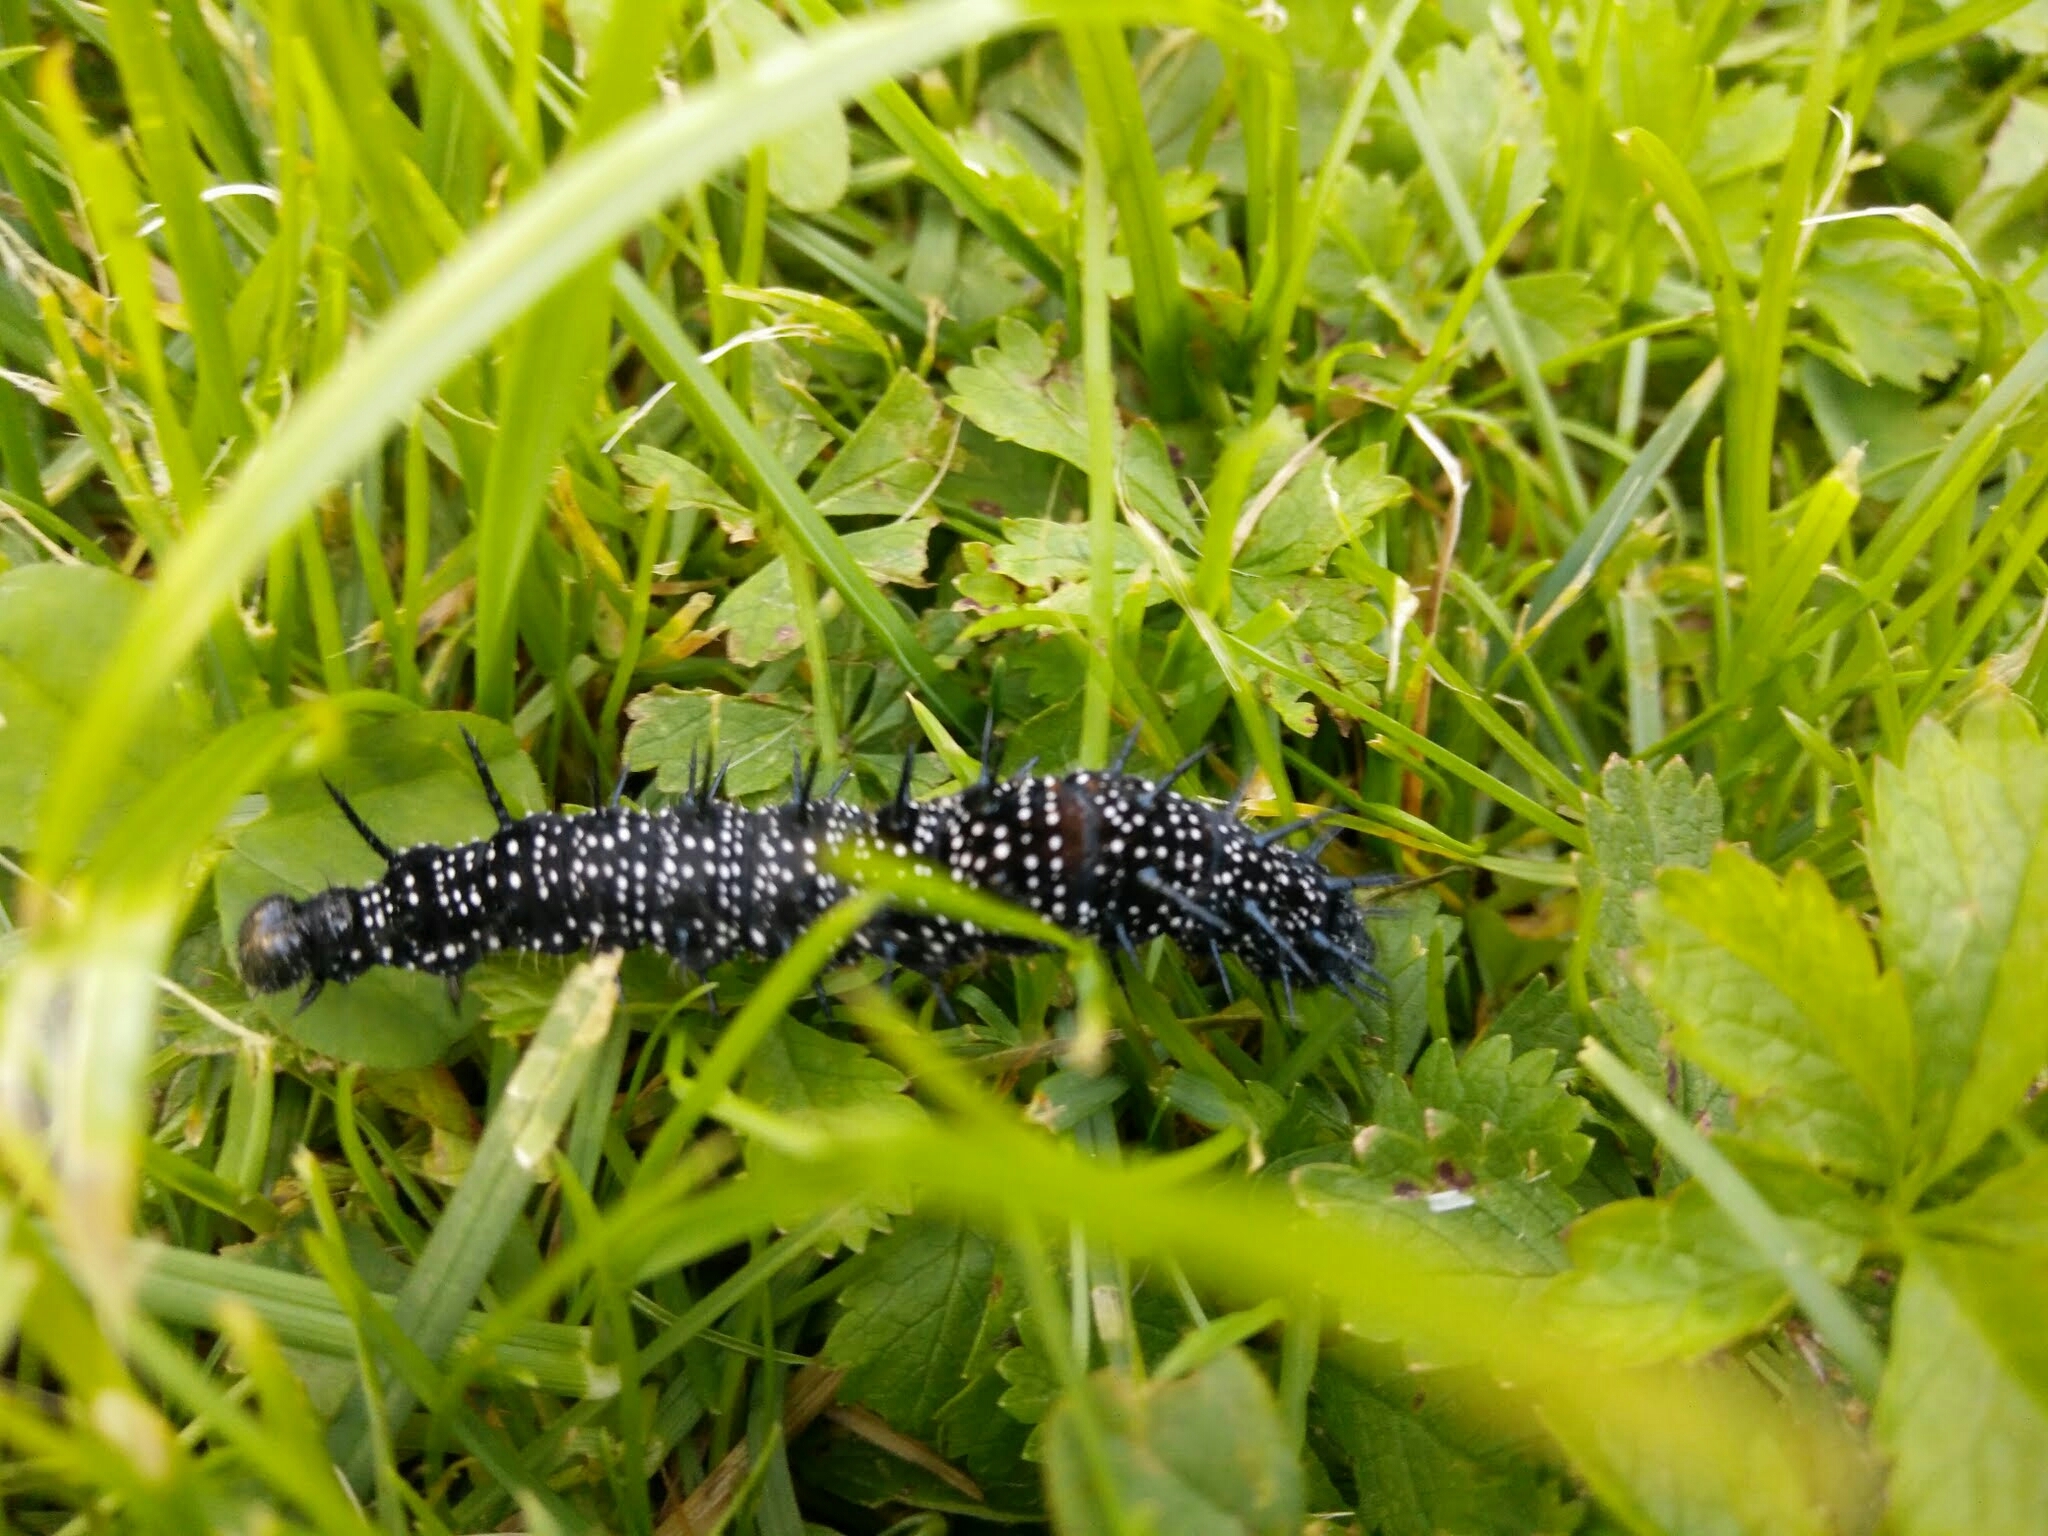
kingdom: Animalia
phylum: Arthropoda
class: Insecta
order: Lepidoptera
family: Nymphalidae
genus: Aglais
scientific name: Aglais io
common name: Peacock
